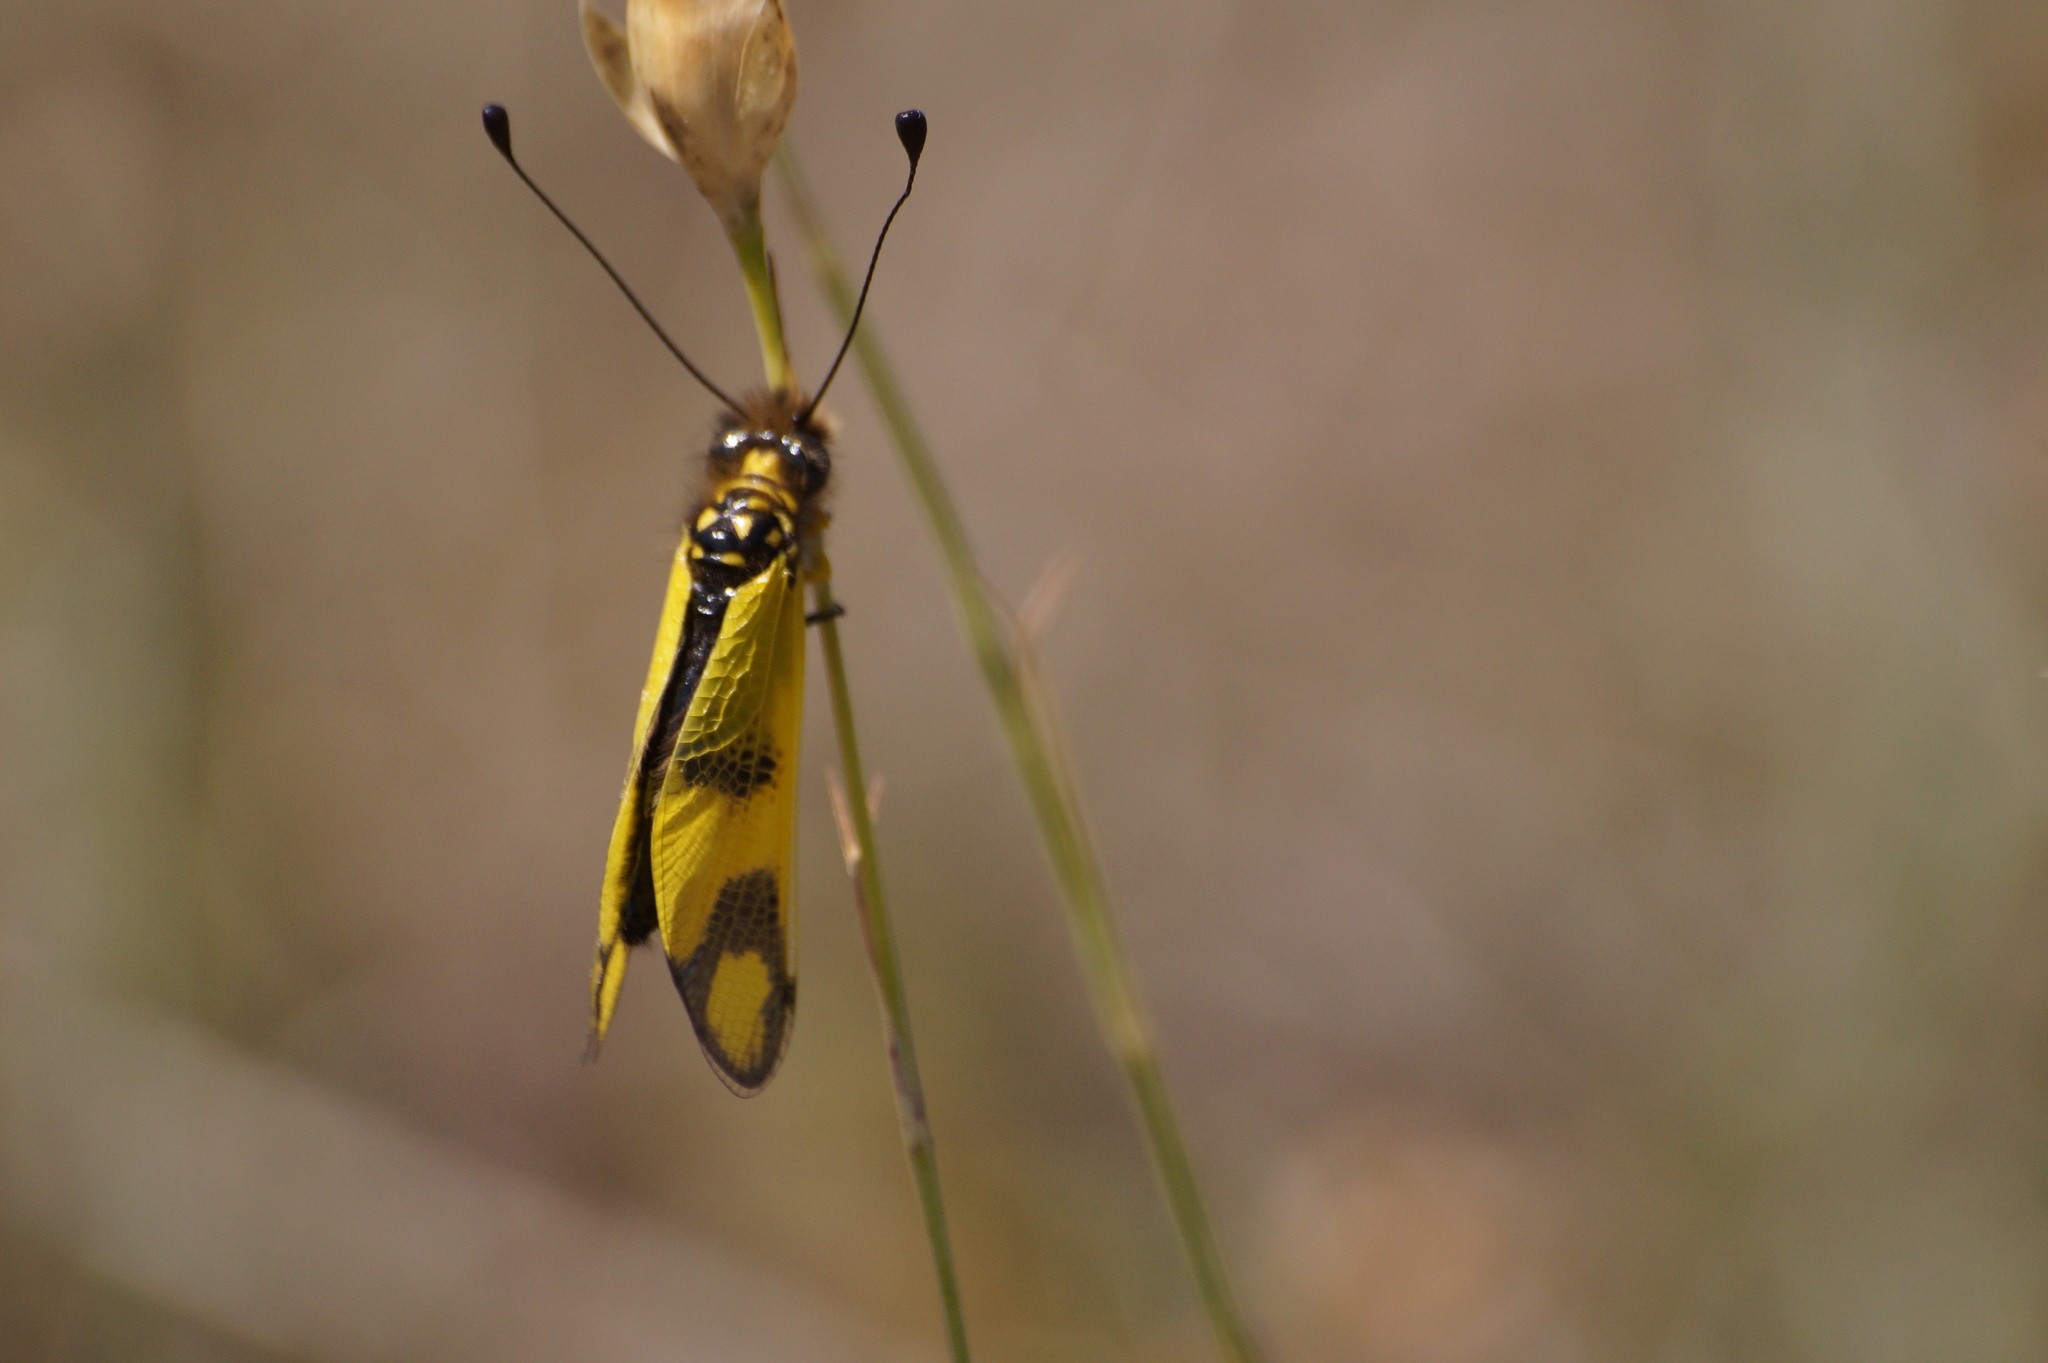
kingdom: Animalia
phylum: Arthropoda
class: Insecta
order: Neuroptera
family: Ascalaphidae
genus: Libelloides
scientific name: Libelloides macaronius
